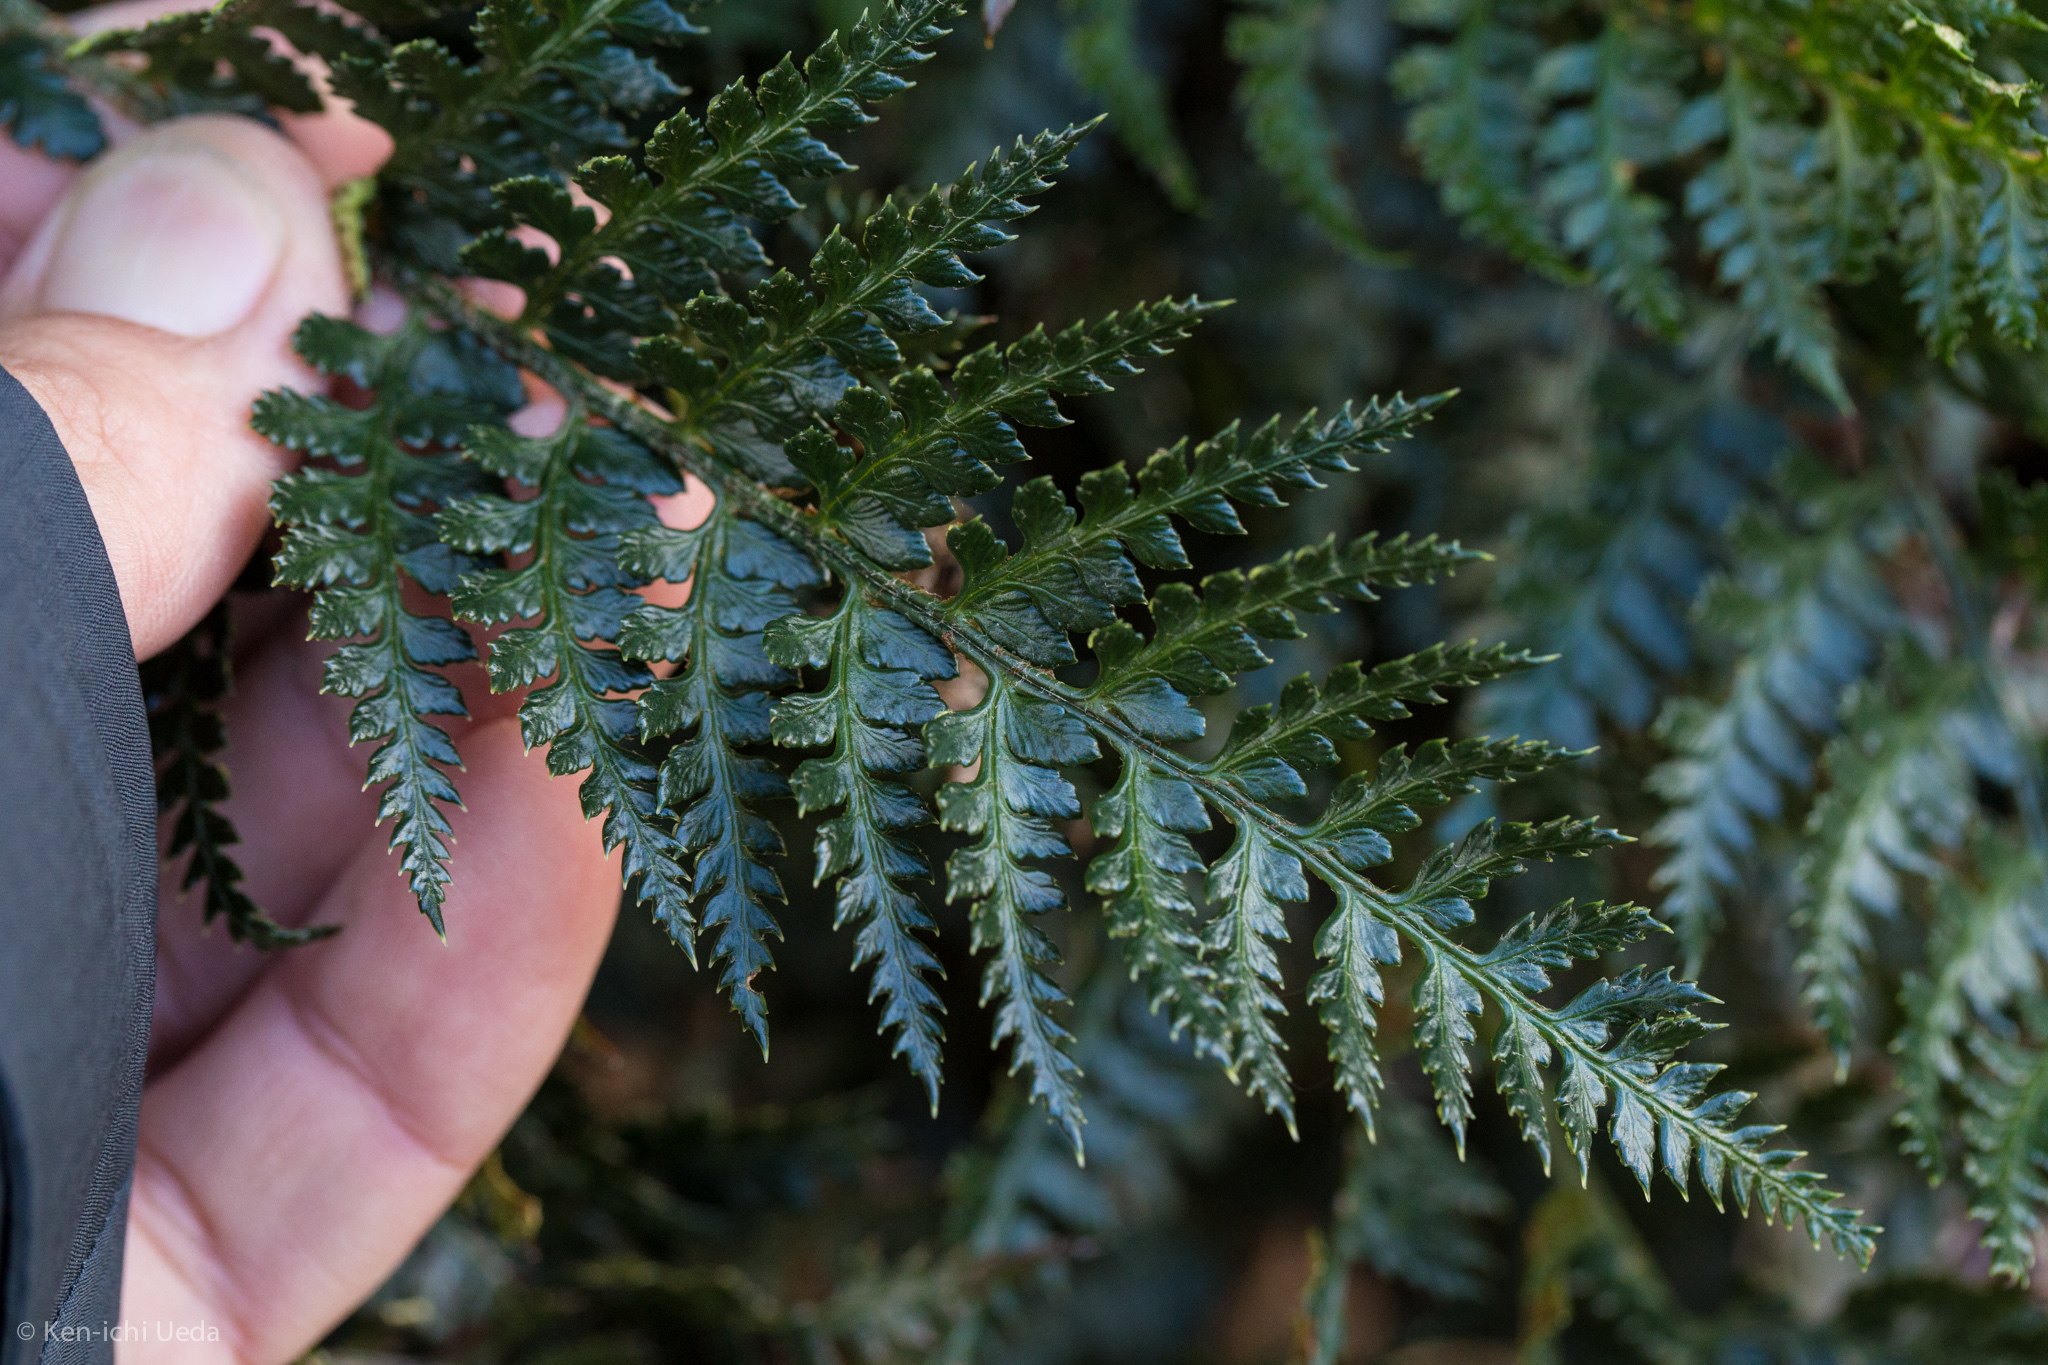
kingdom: Plantae
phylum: Tracheophyta
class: Polypodiopsida
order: Polypodiales
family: Dryopteridaceae
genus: Polystichum
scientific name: Polystichum oculatum
